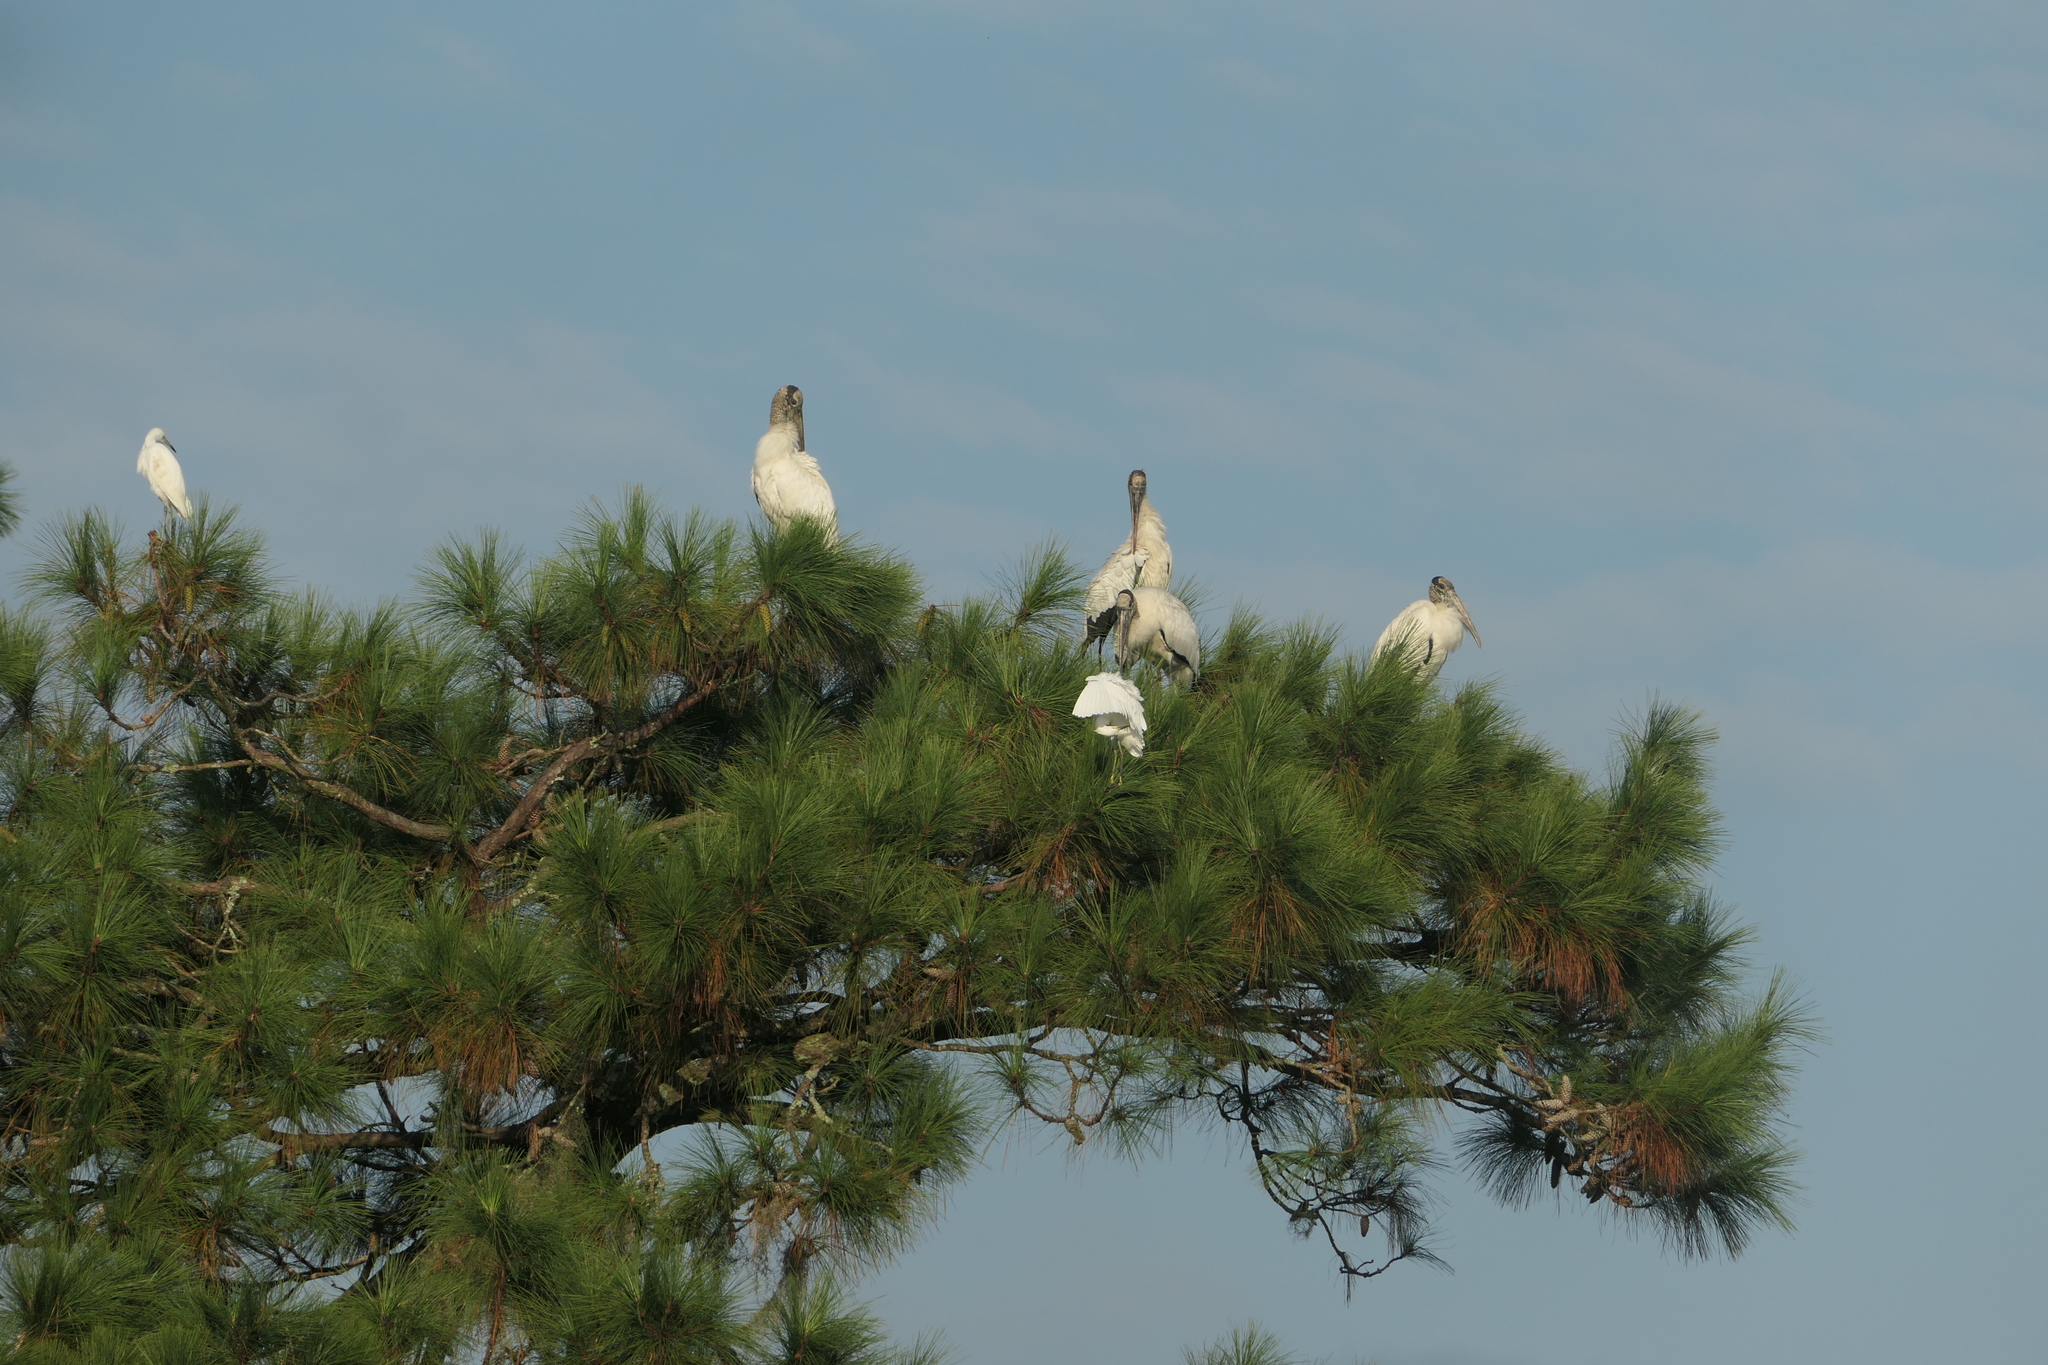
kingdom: Animalia
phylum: Chordata
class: Aves
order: Ciconiiformes
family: Ciconiidae
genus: Mycteria
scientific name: Mycteria americana
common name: Wood stork
